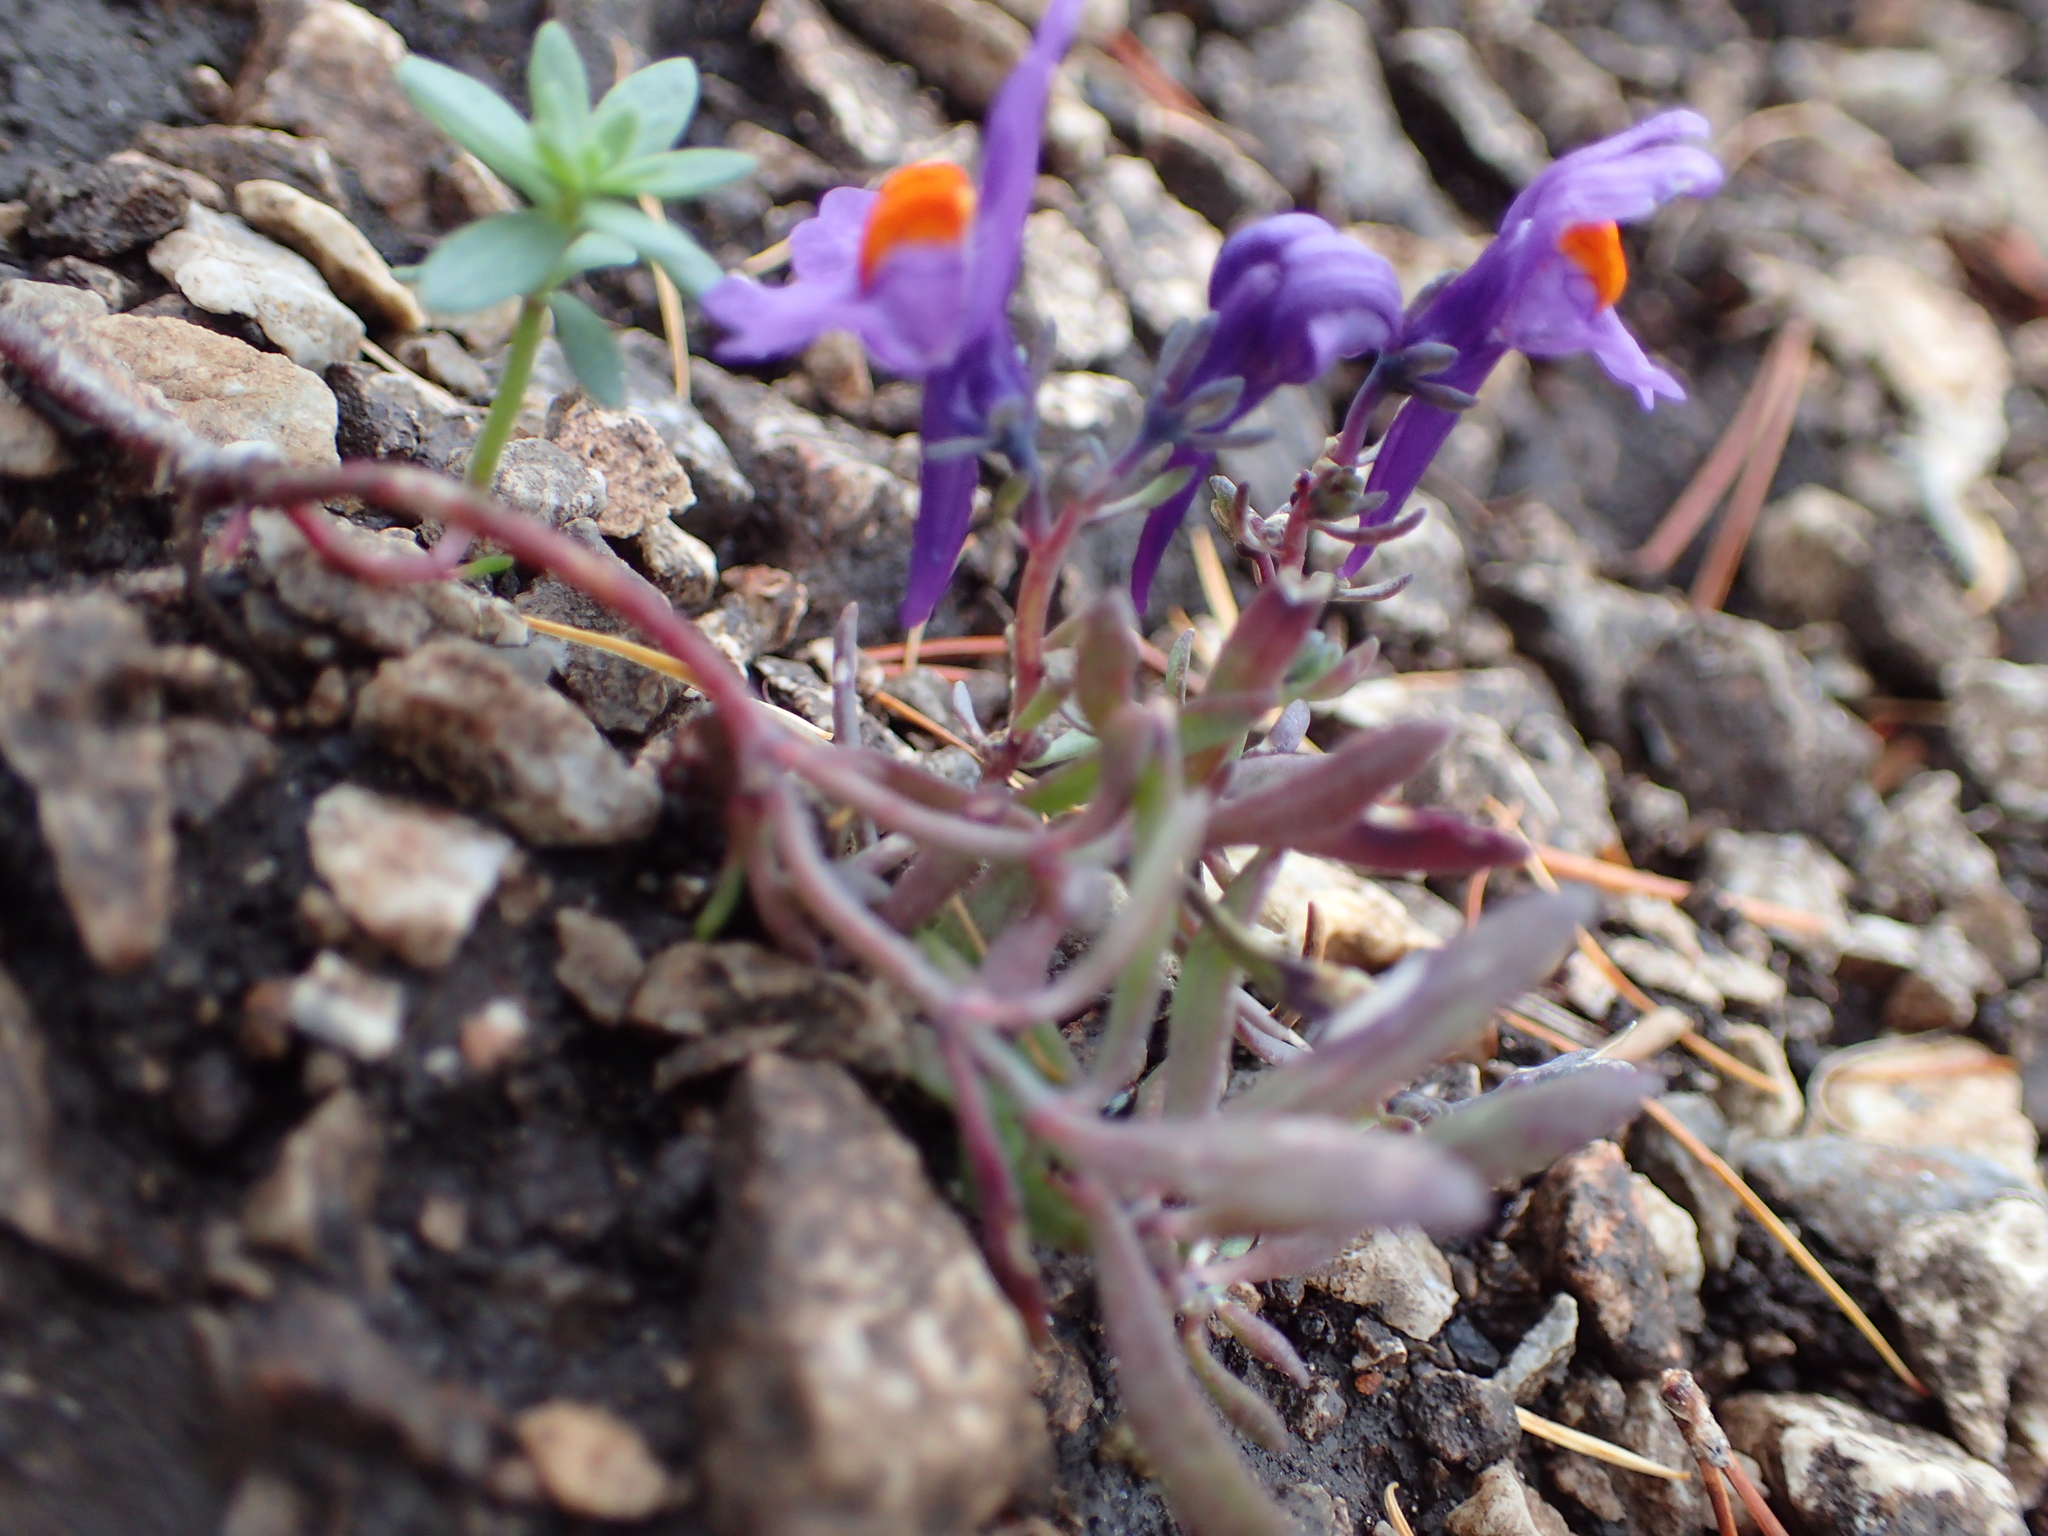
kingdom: Plantae
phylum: Tracheophyta
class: Magnoliopsida
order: Lamiales
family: Plantaginaceae
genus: Linaria
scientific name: Linaria alpina
